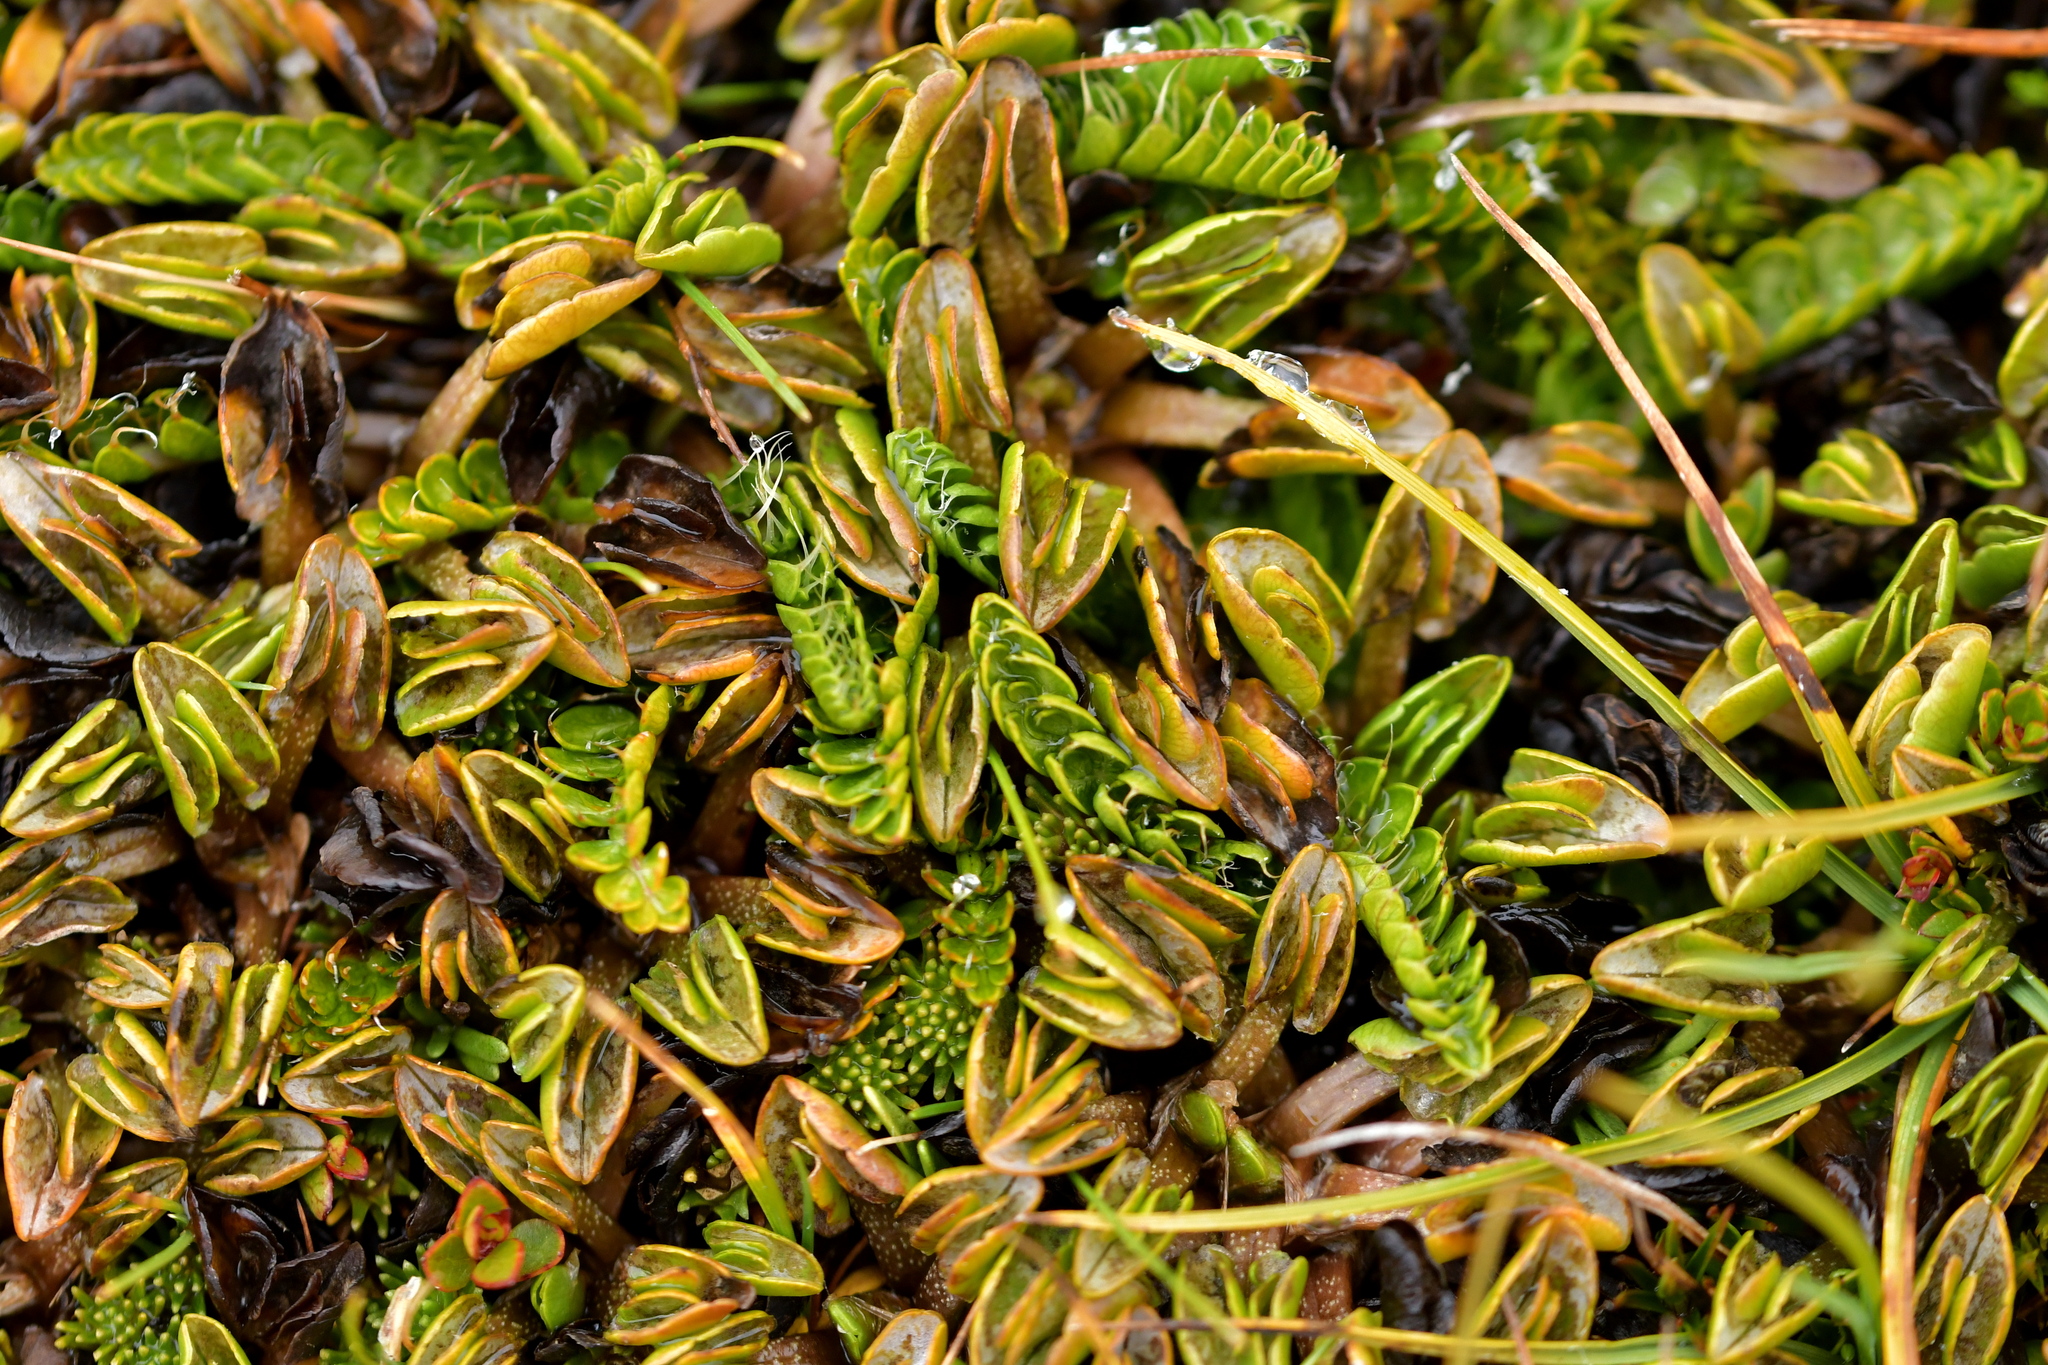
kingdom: Plantae
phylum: Tracheophyta
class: Magnoliopsida
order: Apiales
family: Apiaceae
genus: Anisotome
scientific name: Anisotome flexuosa
